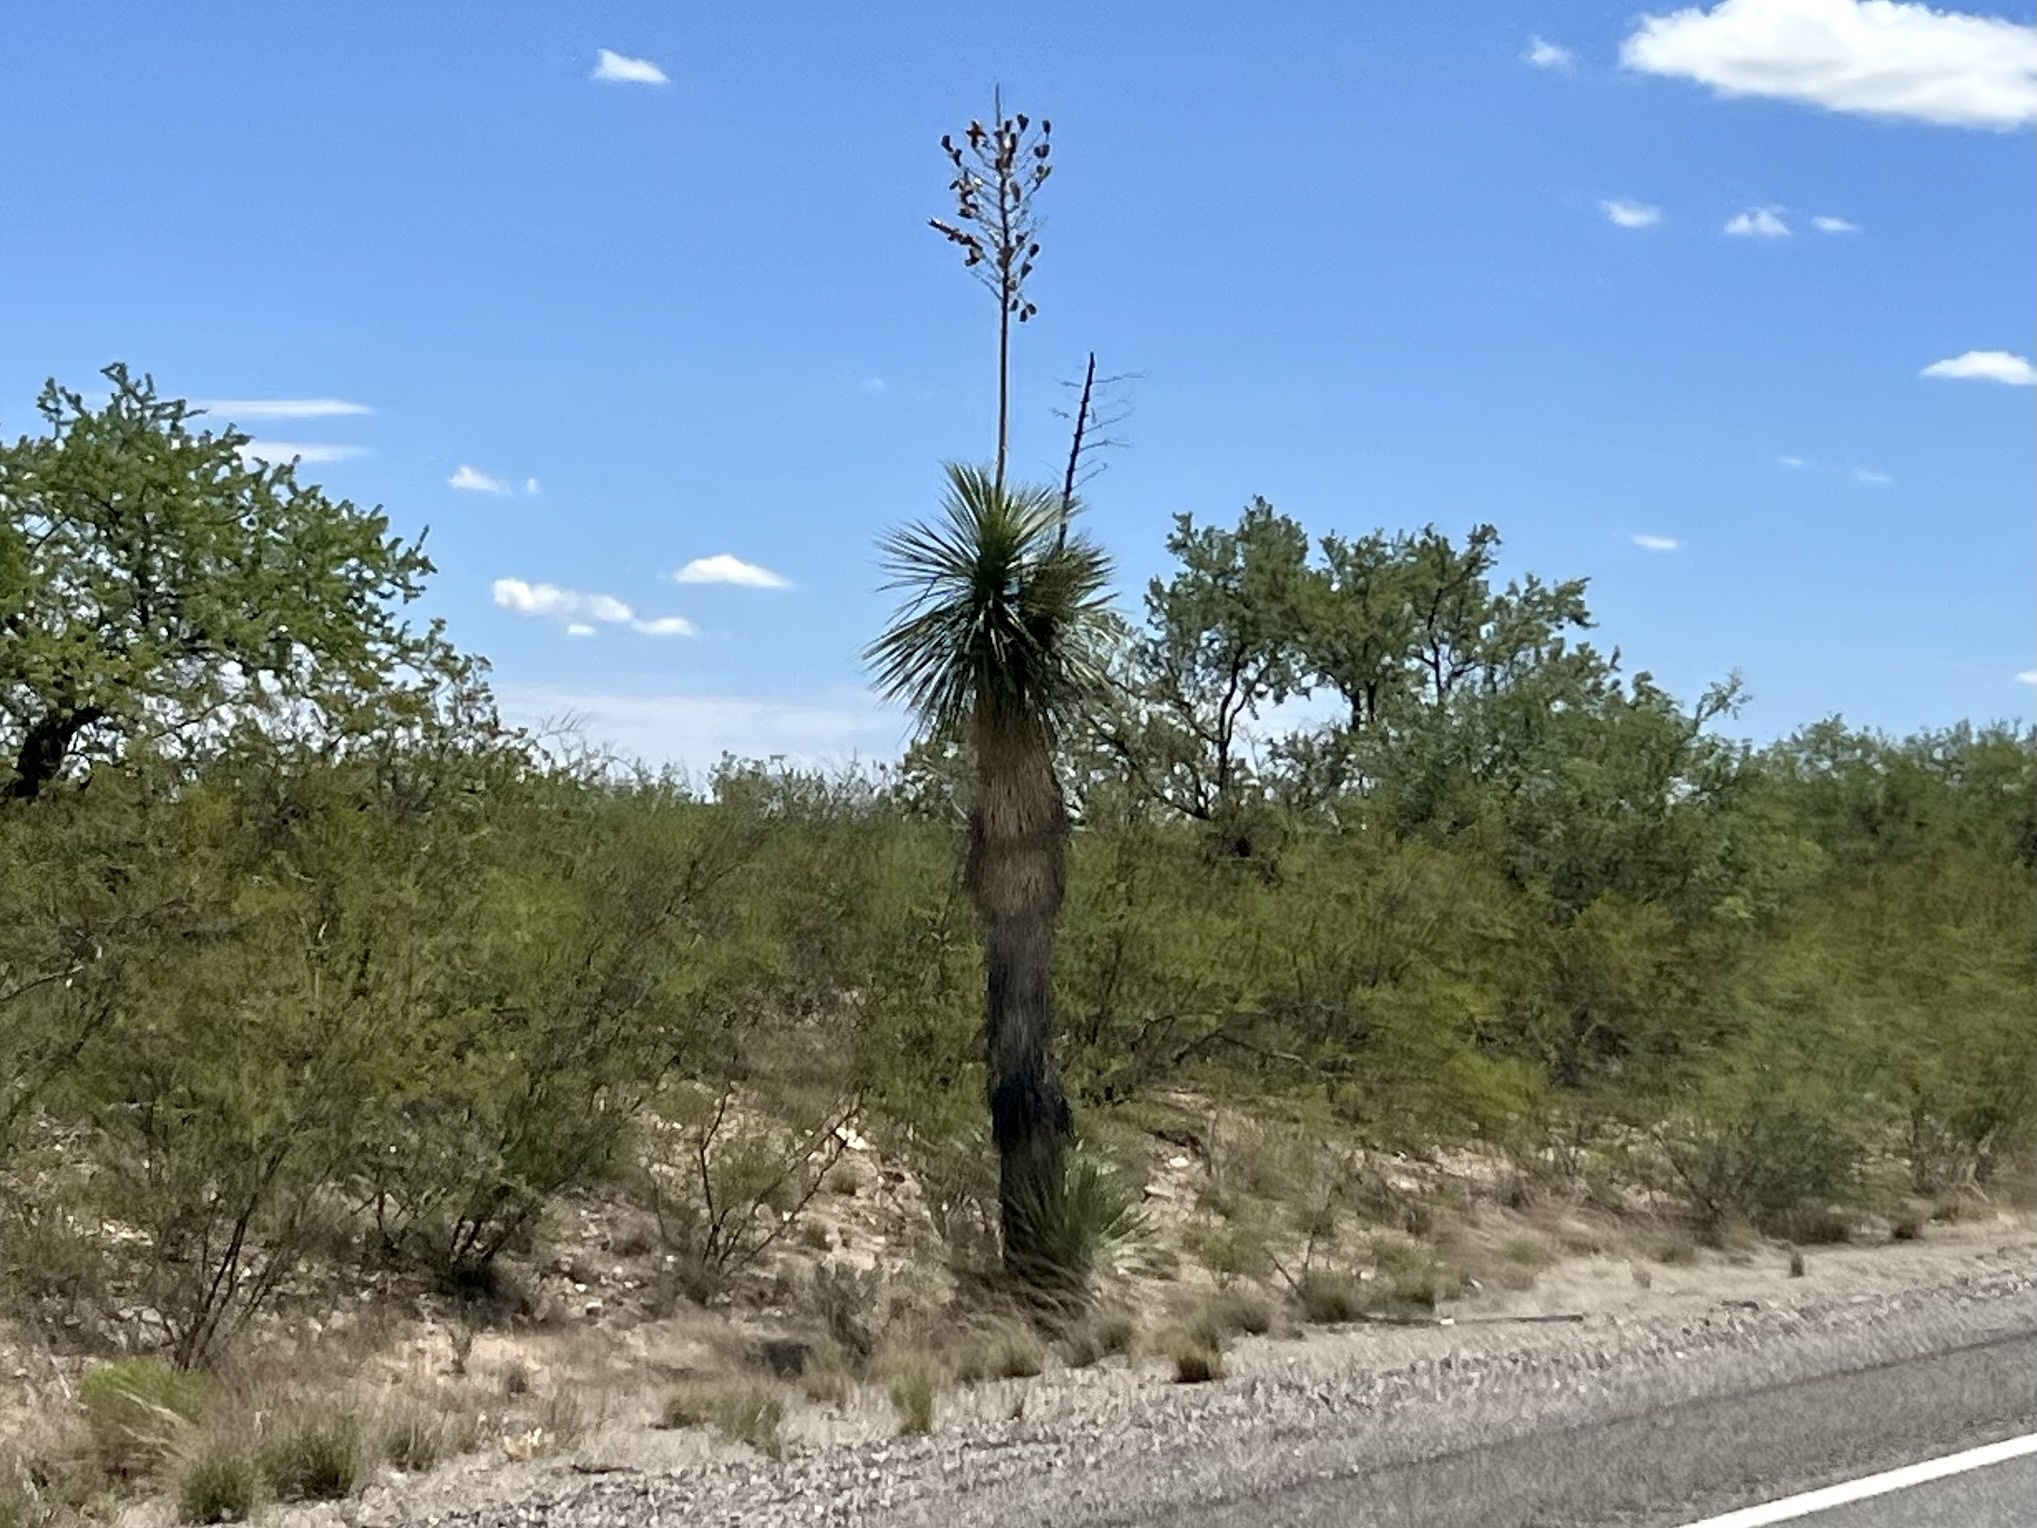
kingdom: Plantae
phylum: Tracheophyta
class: Liliopsida
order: Asparagales
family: Asparagaceae
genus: Yucca
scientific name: Yucca elata
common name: Palmella
